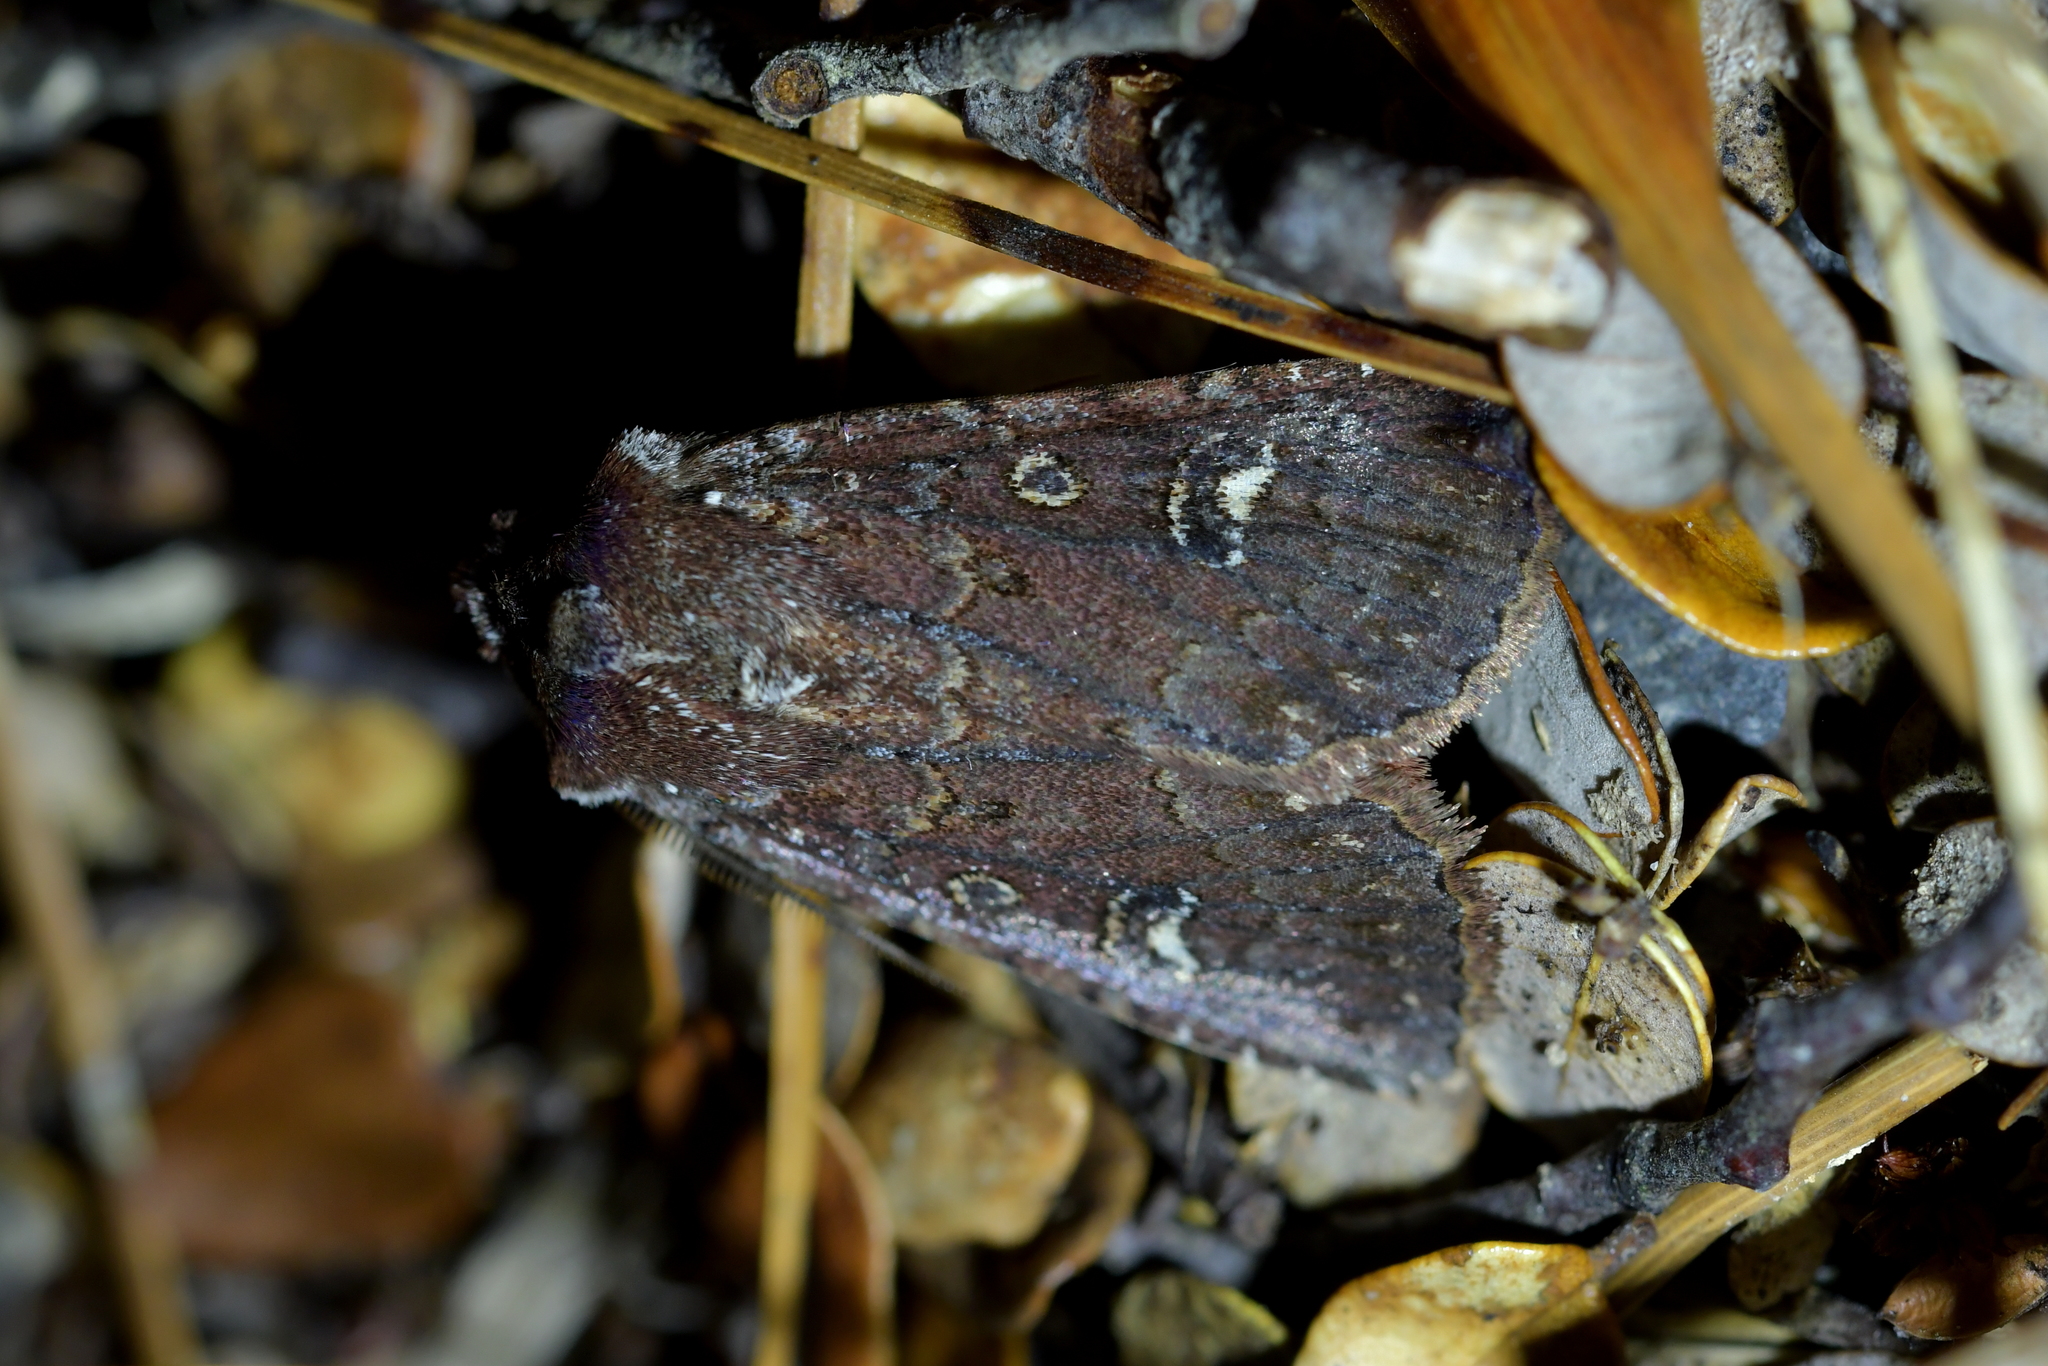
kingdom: Animalia
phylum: Arthropoda
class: Insecta
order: Lepidoptera
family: Noctuidae
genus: Ichneutica
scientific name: Ichneutica agorastis
